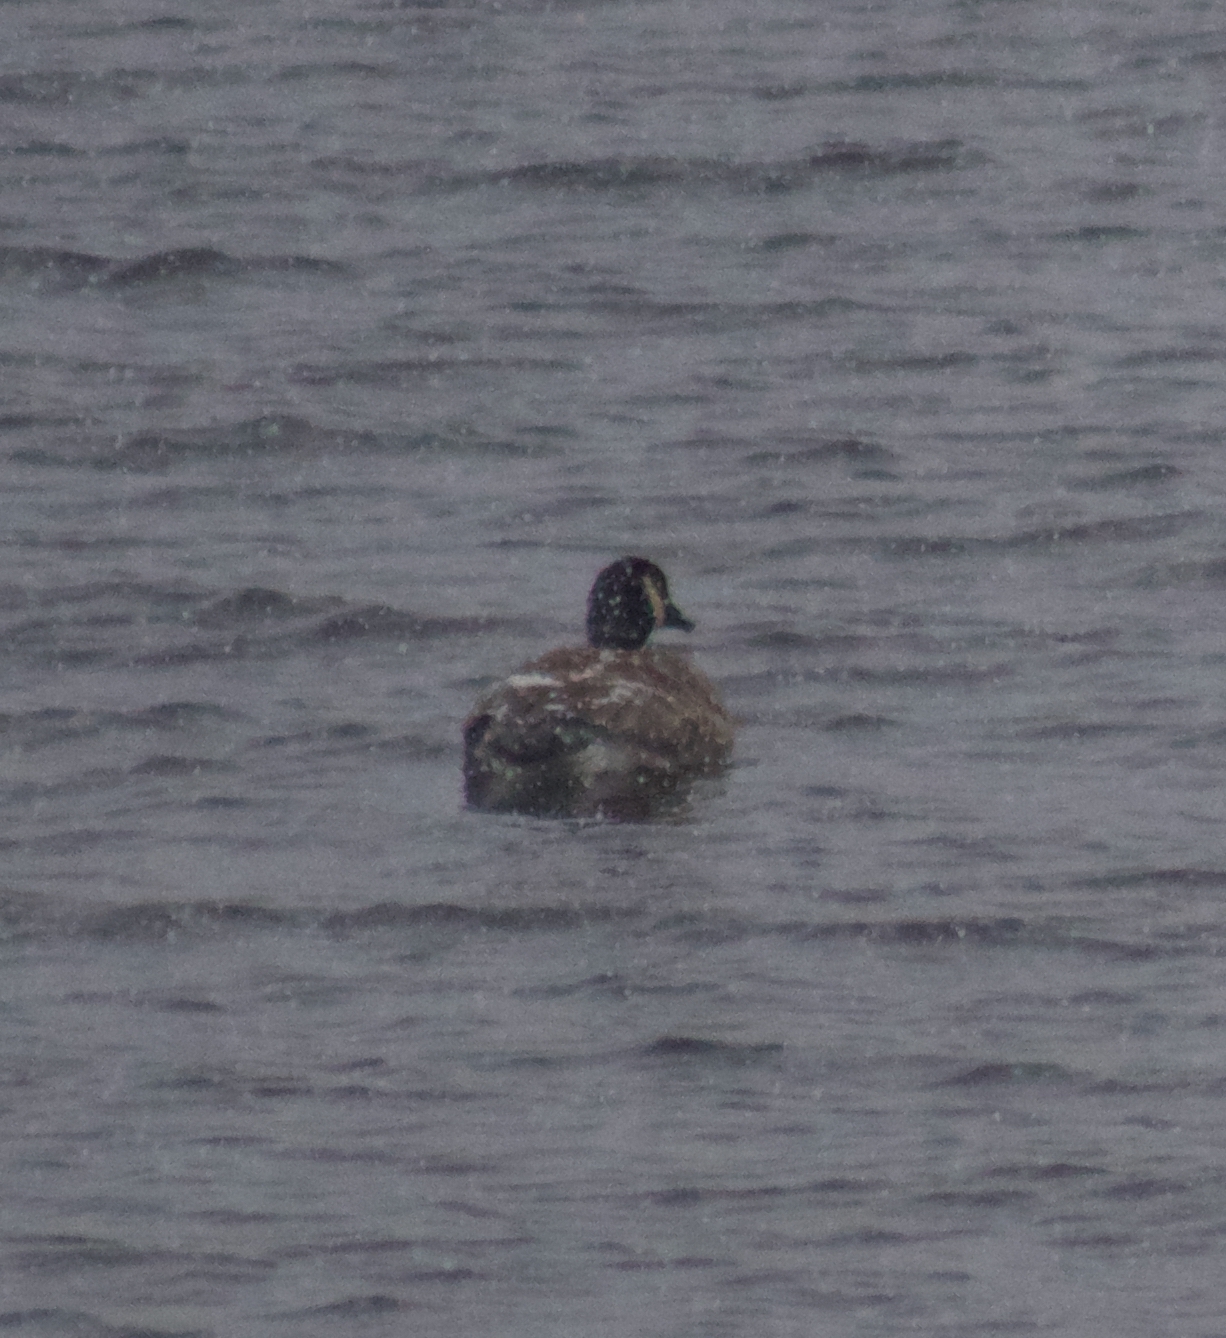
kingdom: Animalia
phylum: Chordata
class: Aves
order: Anseriformes
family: Anatidae
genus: Branta
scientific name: Branta canadensis
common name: Canada goose
